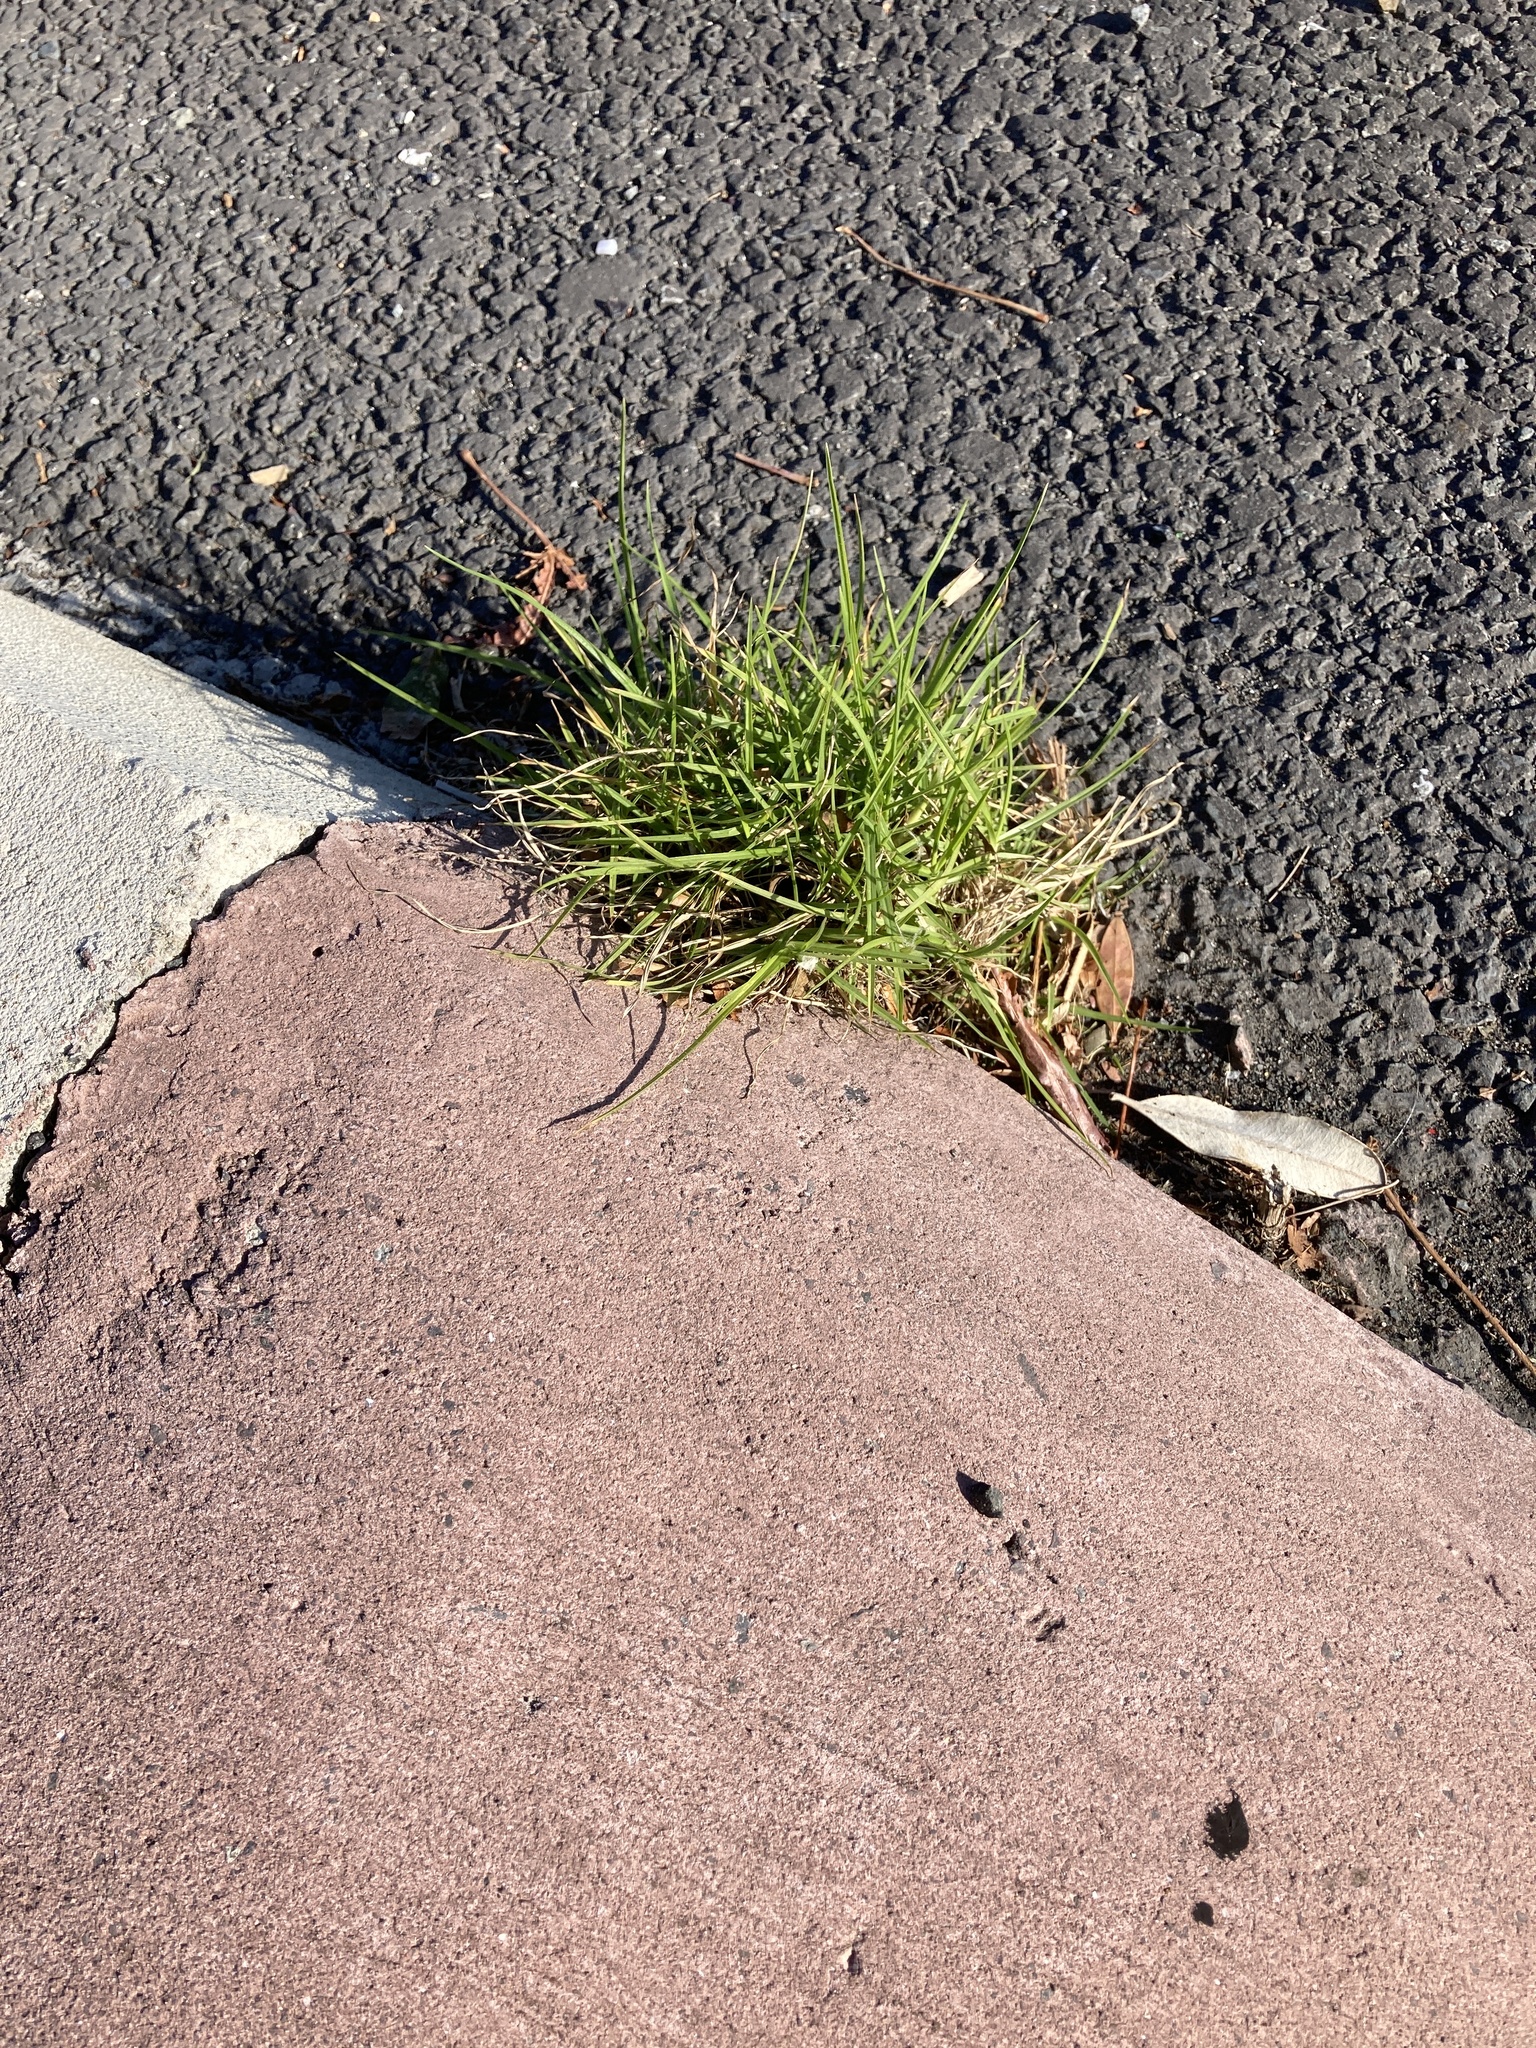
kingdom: Plantae
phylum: Tracheophyta
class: Liliopsida
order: Poales
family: Poaceae
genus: Cenchrus
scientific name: Cenchrus clandestinus
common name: Kikuyugrass
